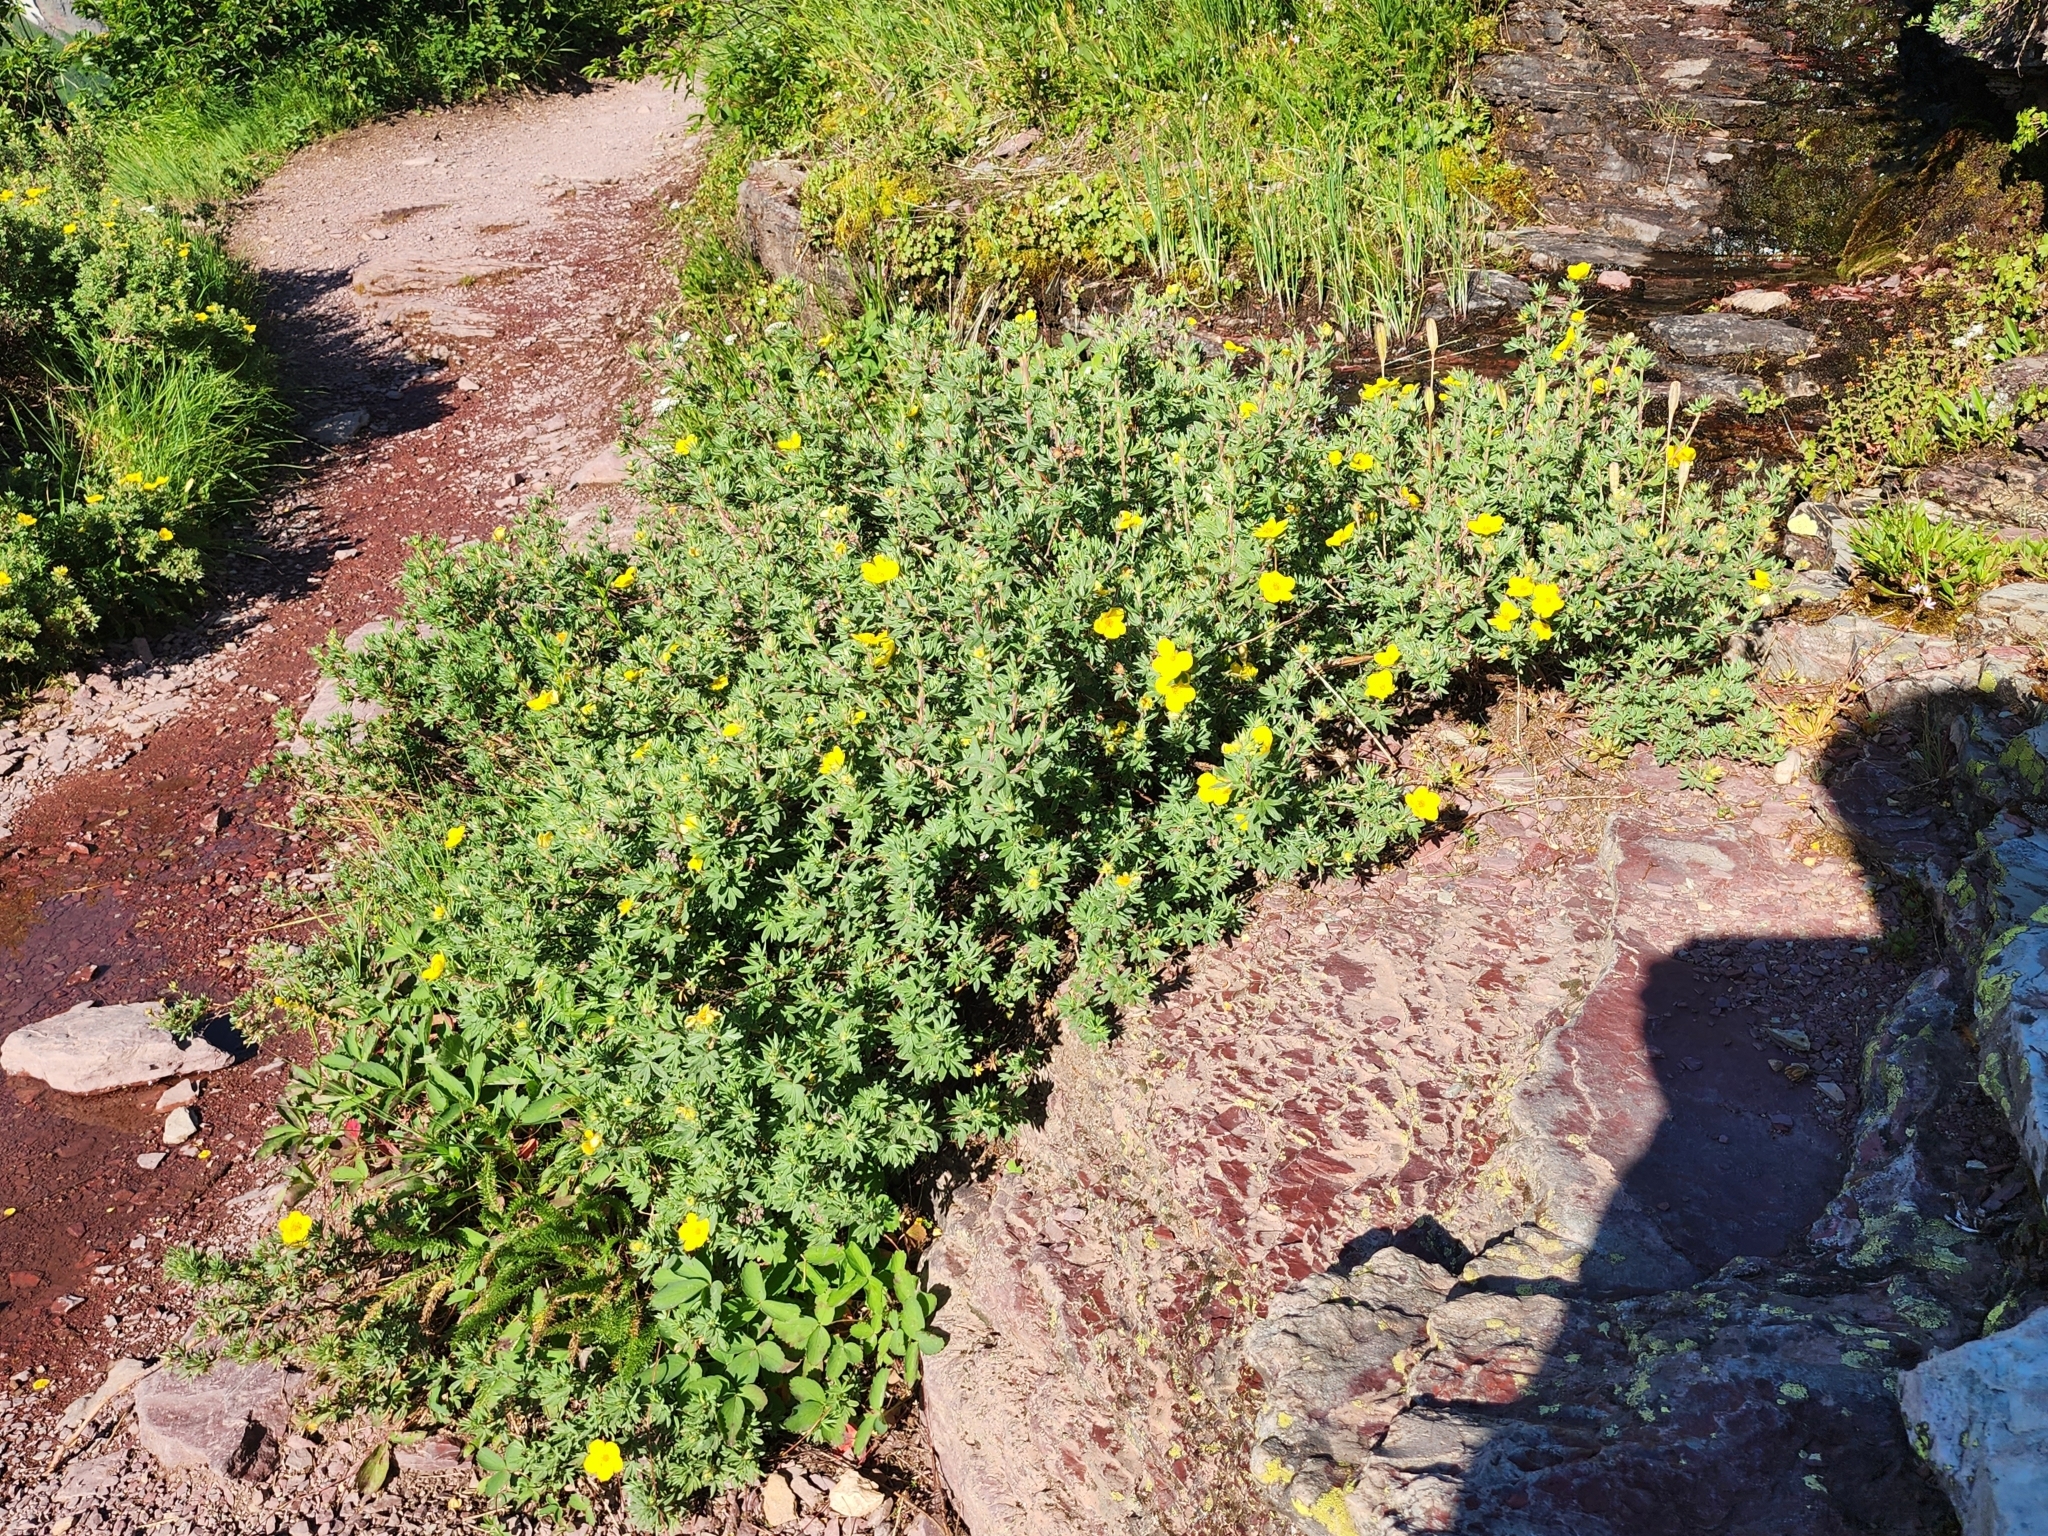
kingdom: Plantae
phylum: Tracheophyta
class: Magnoliopsida
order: Rosales
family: Rosaceae
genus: Dasiphora
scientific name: Dasiphora fruticosa
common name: Shrubby cinquefoil
